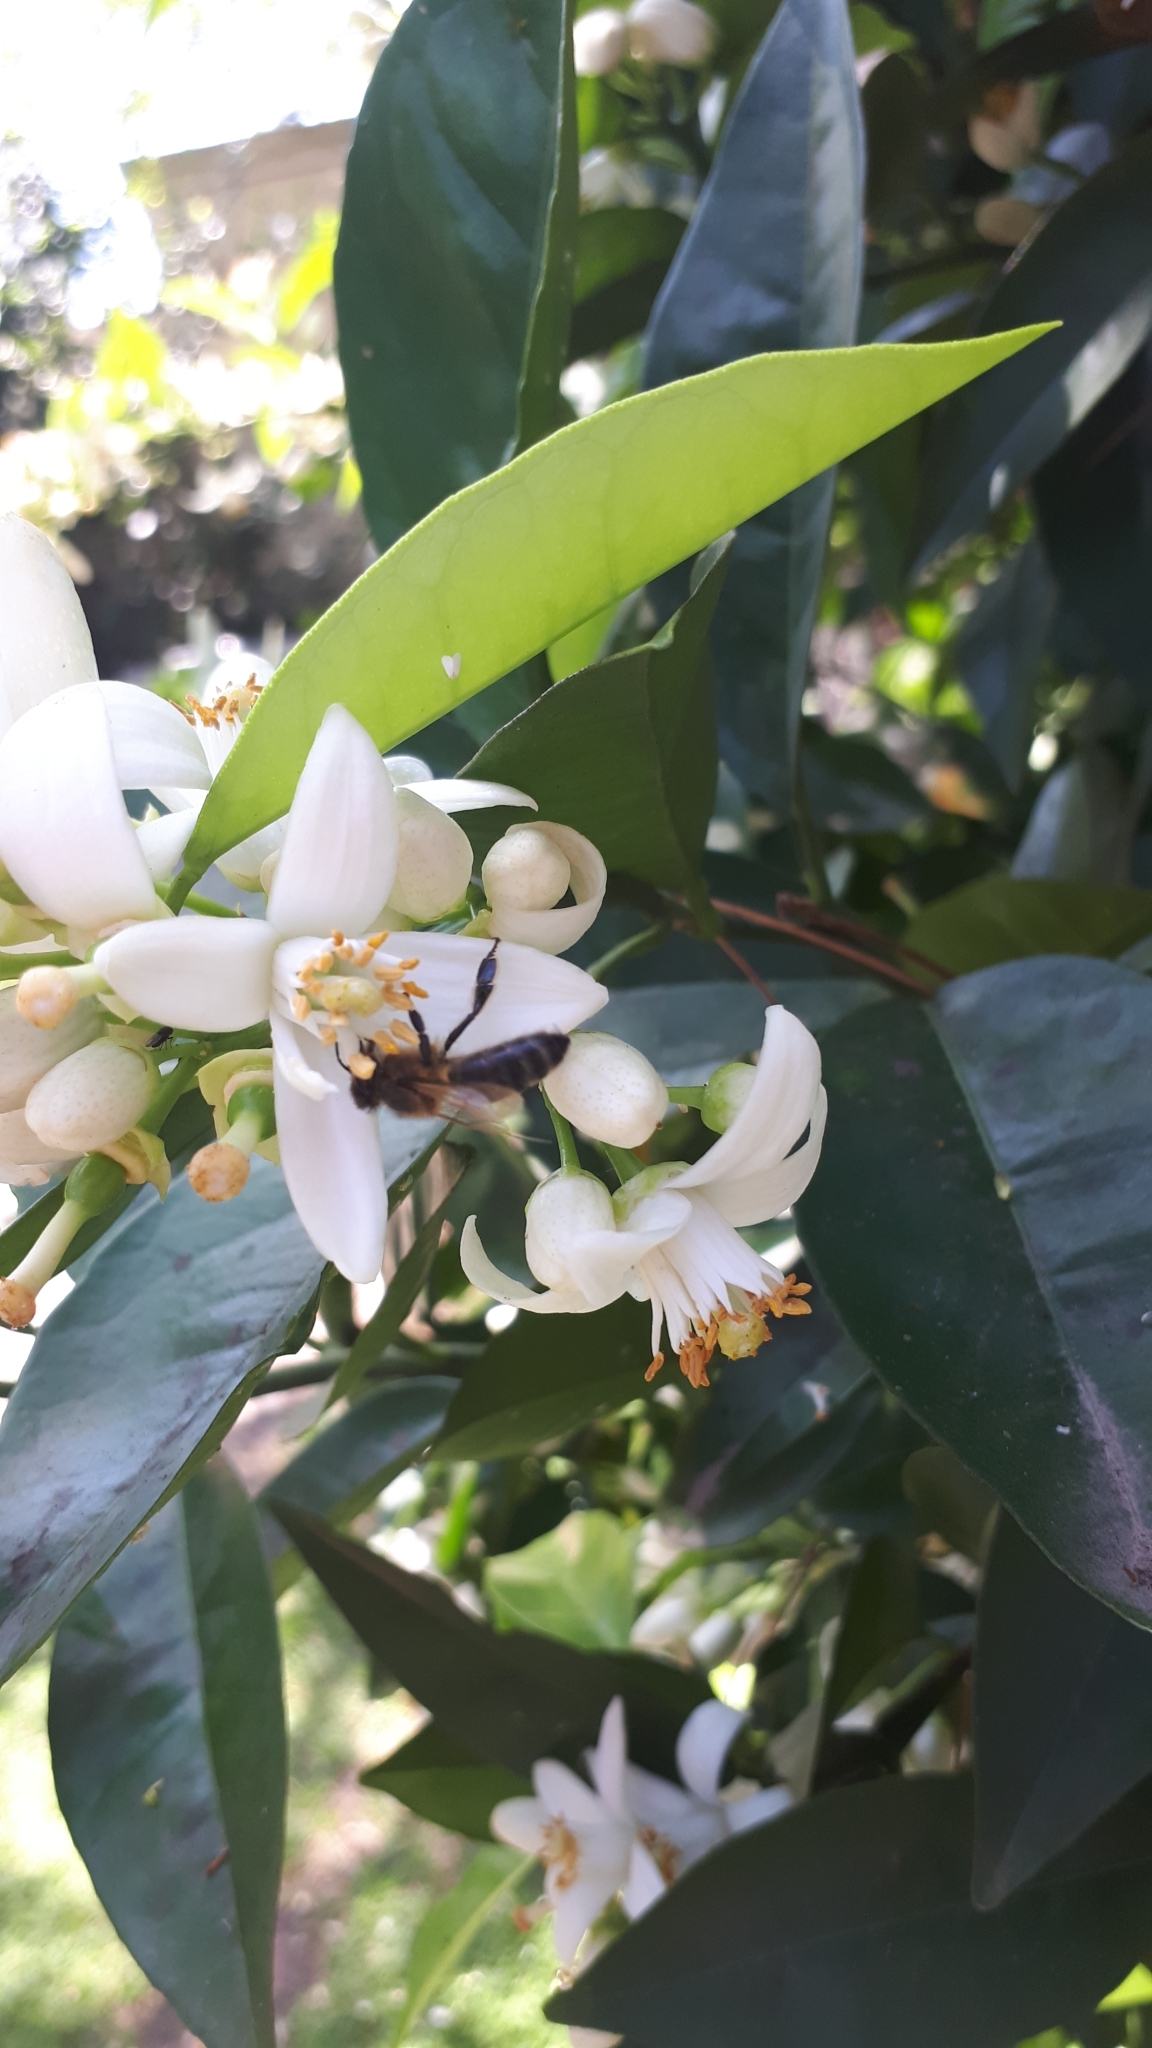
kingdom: Animalia
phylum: Arthropoda
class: Insecta
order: Hymenoptera
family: Apidae
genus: Apis
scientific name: Apis mellifera
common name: Honey bee
